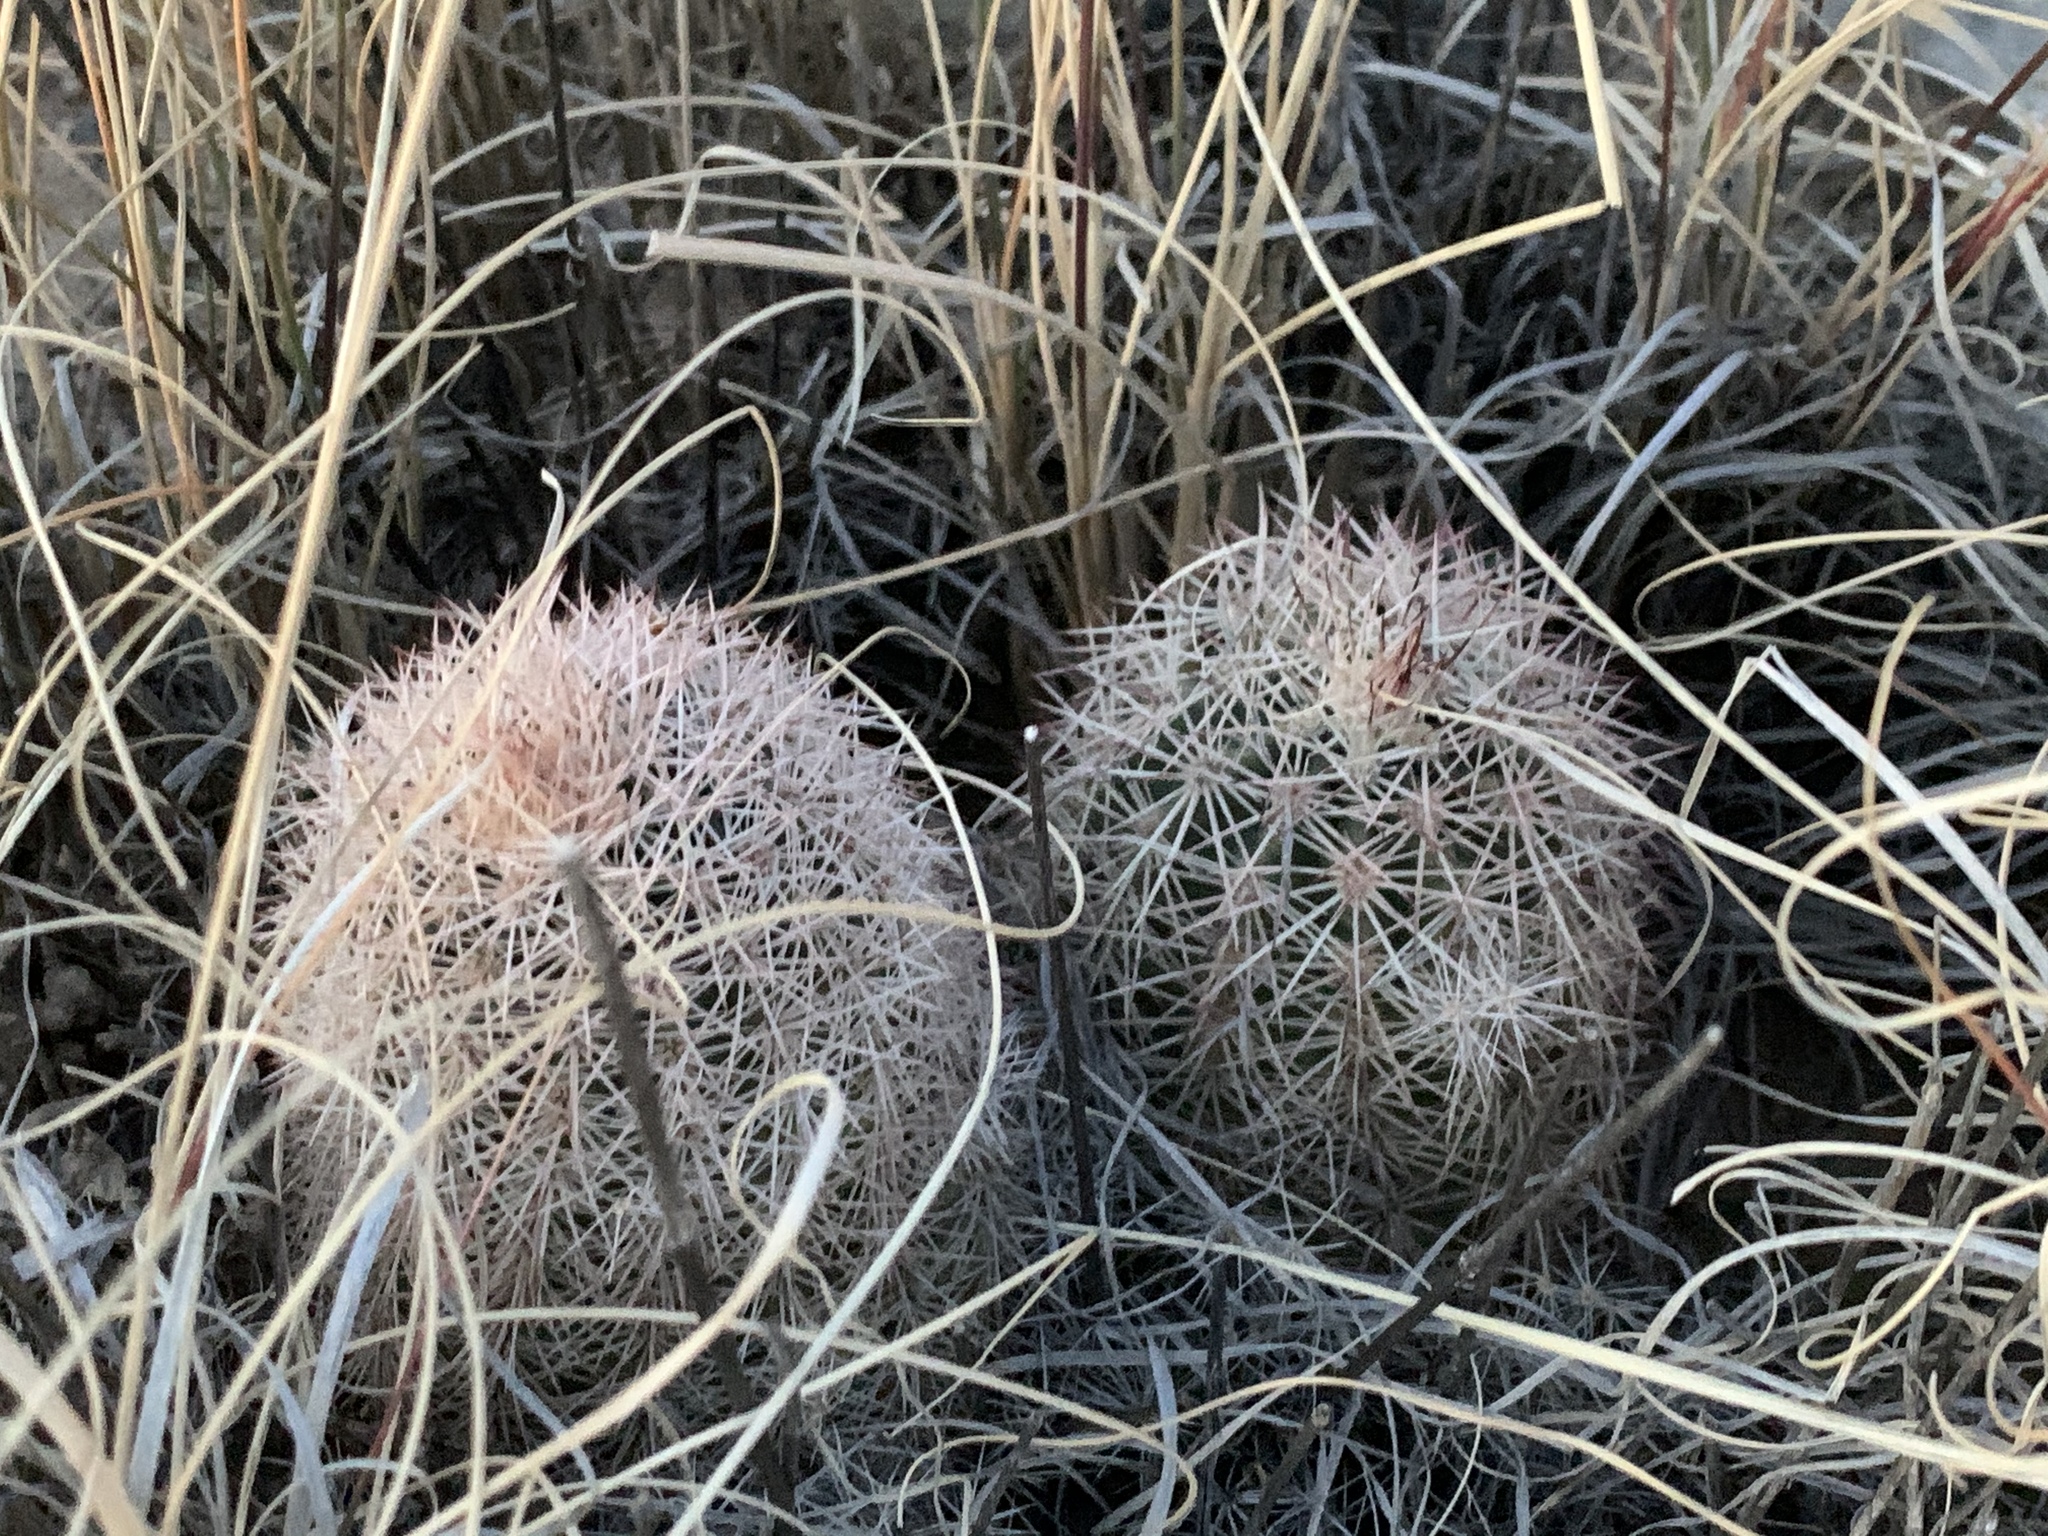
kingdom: Plantae
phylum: Tracheophyta
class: Magnoliopsida
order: Caryophyllales
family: Cactaceae
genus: Echinocereus
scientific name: Echinocereus dasyacanthus
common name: Spiny hedgehog cactus
